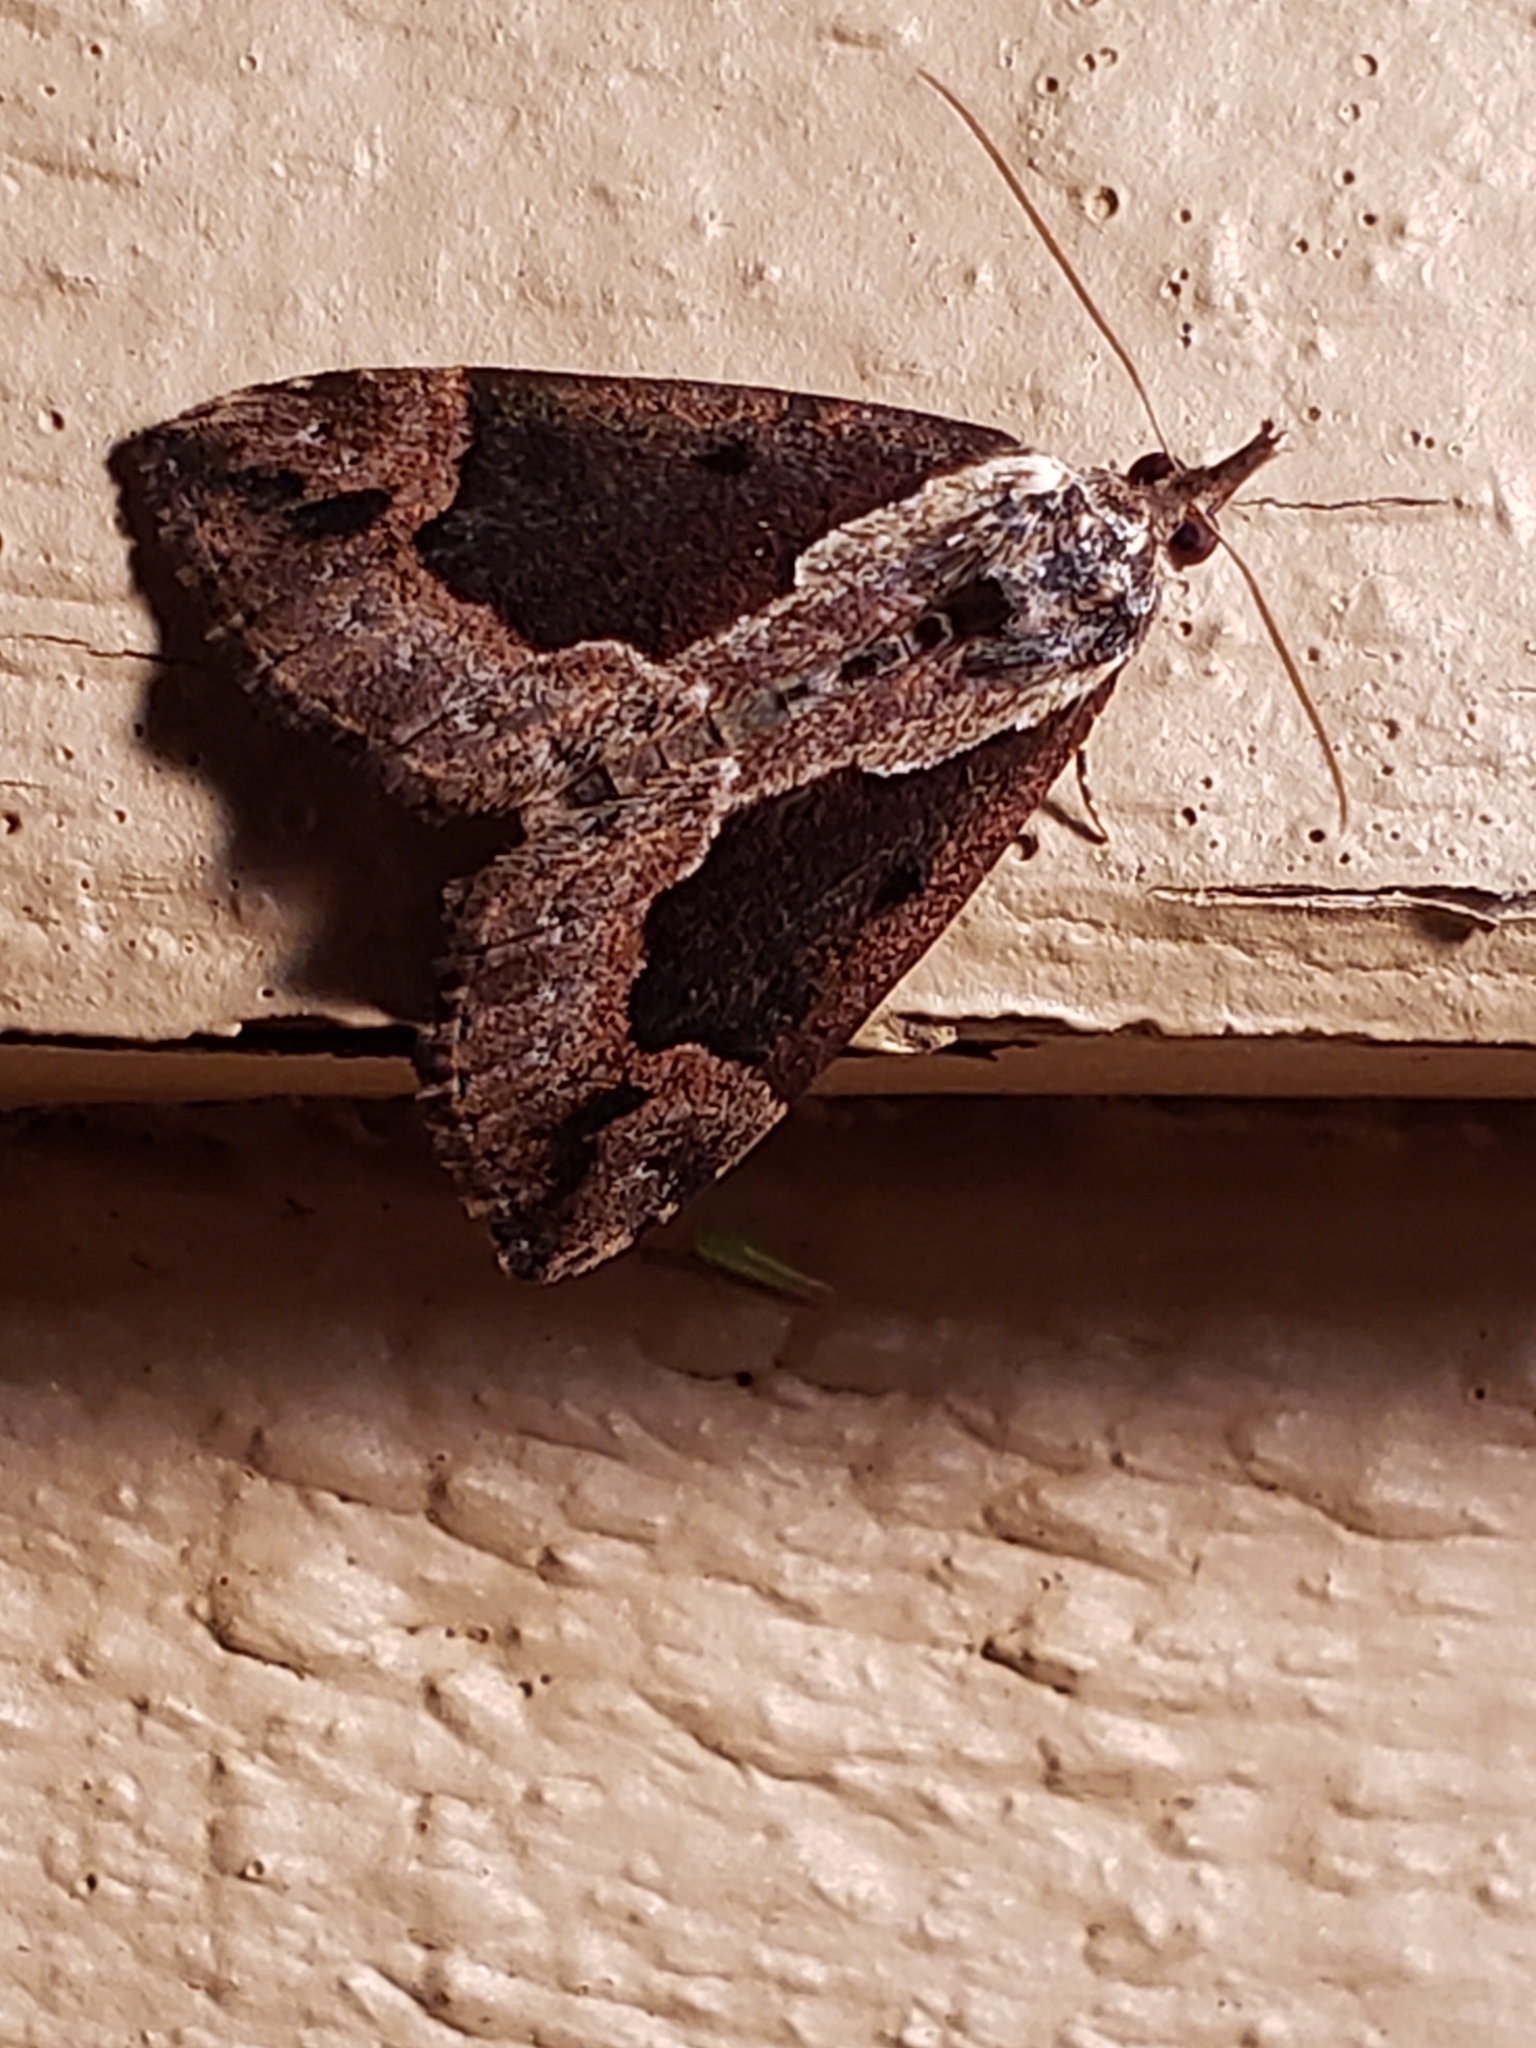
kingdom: Animalia
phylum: Arthropoda
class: Insecta
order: Lepidoptera
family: Erebidae
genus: Hypena
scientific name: Hypena baltimoralis
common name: Baltimore snout
